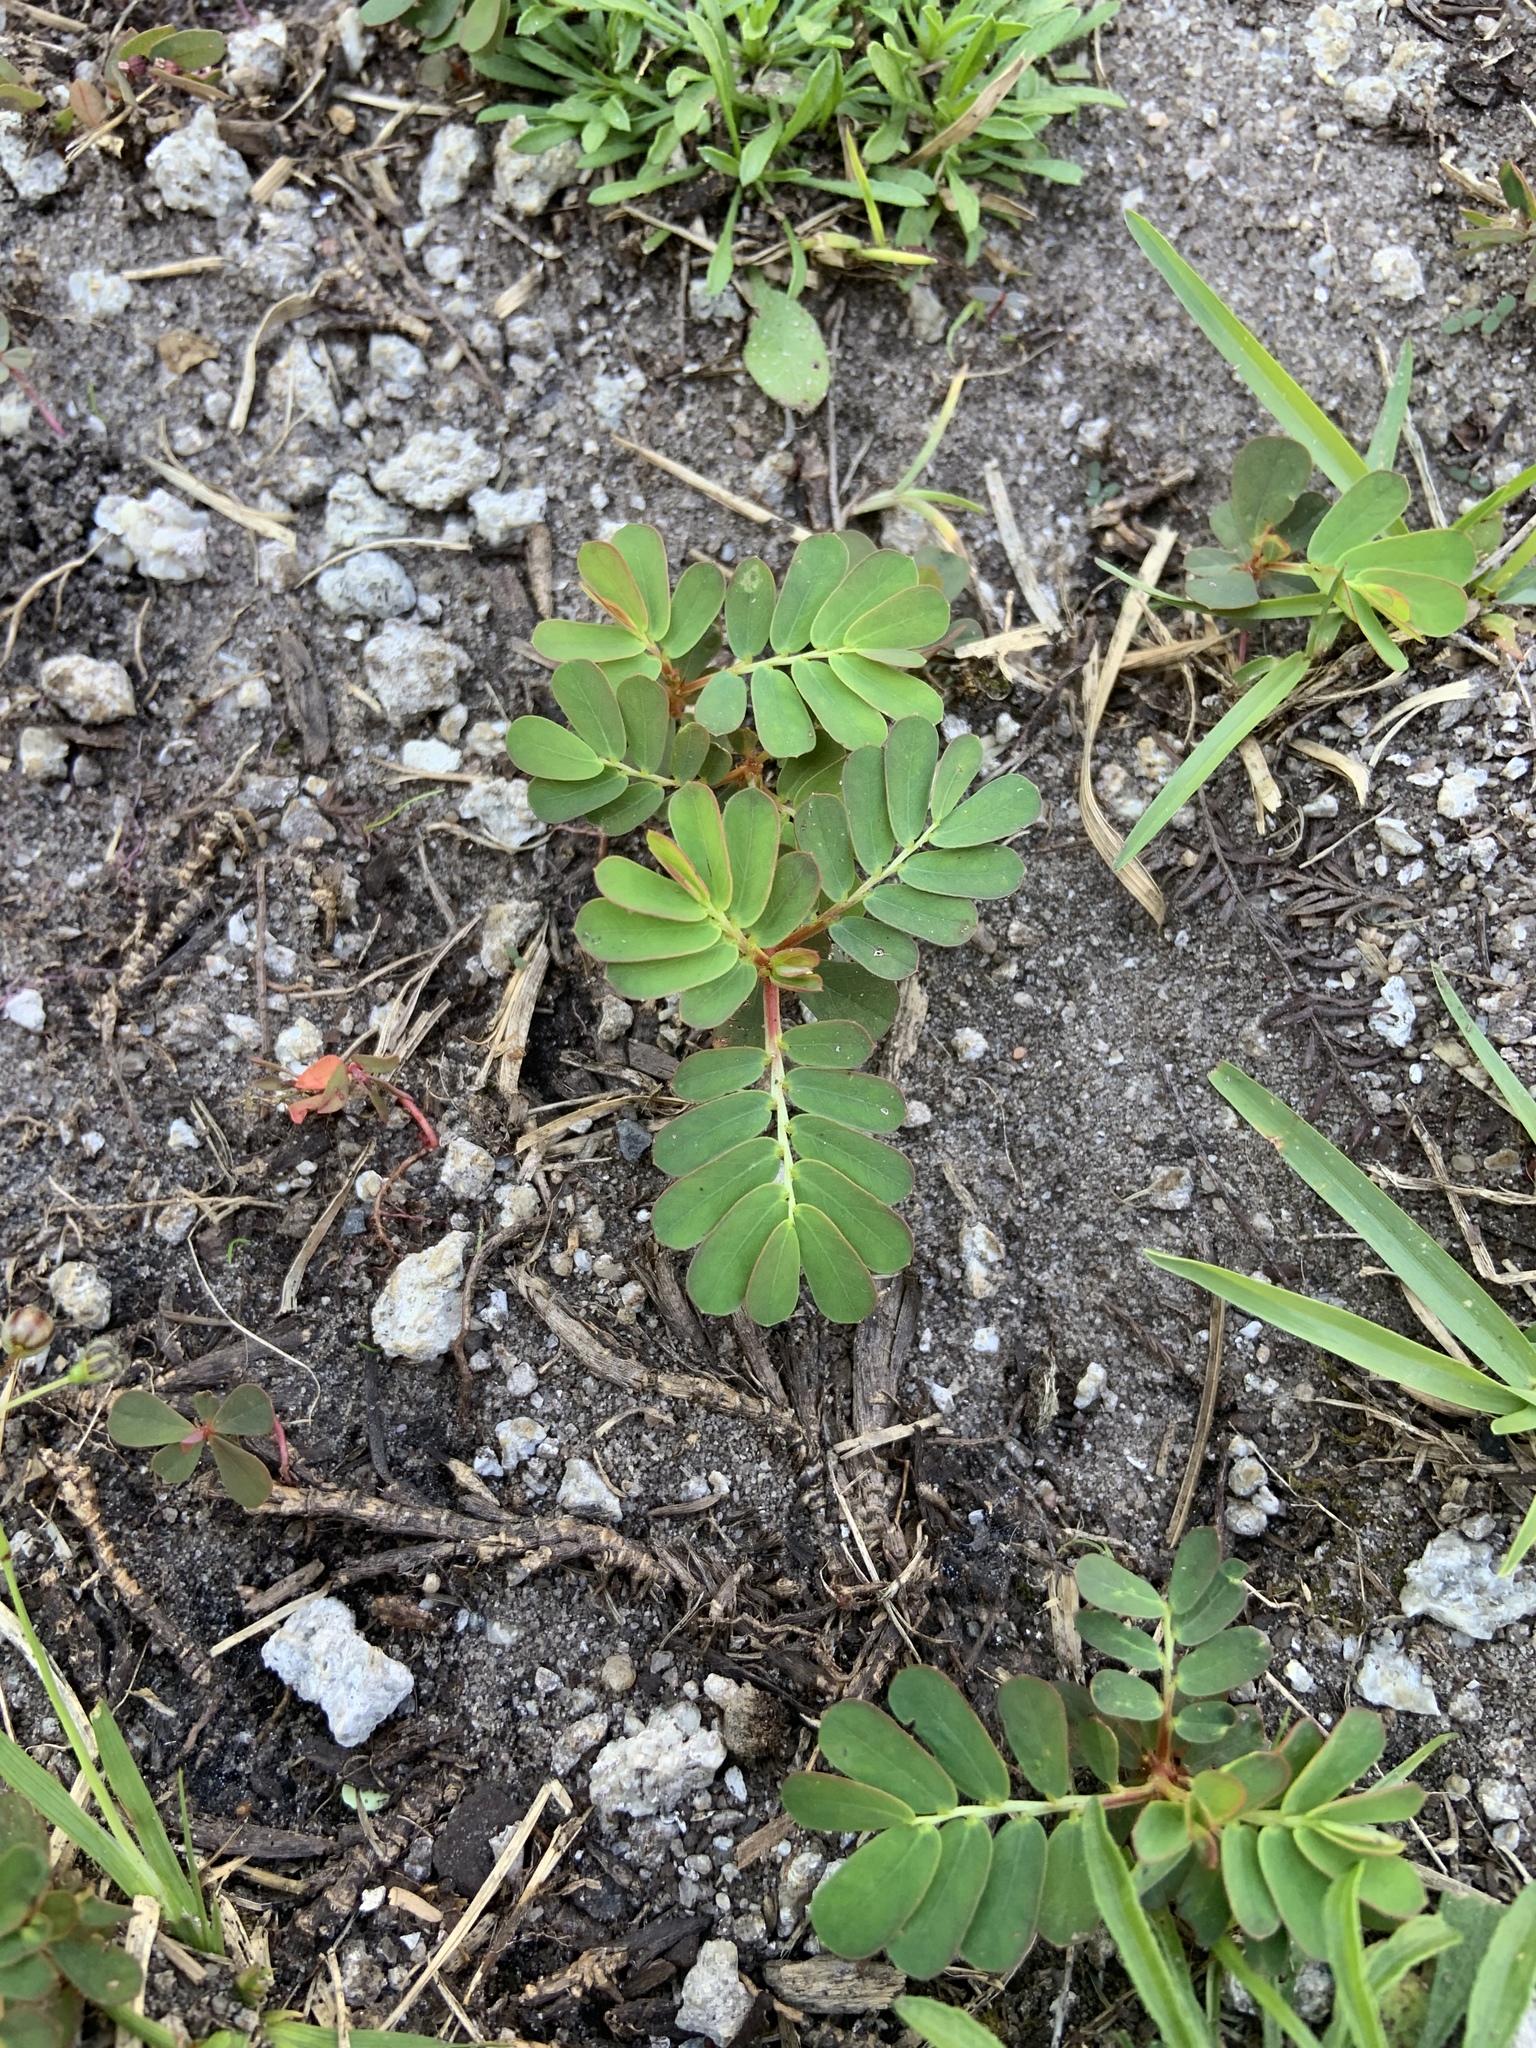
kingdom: Plantae
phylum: Tracheophyta
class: Magnoliopsida
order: Malpighiales
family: Phyllanthaceae
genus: Phyllanthus
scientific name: Phyllanthus urinaria
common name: Chamber bitter
